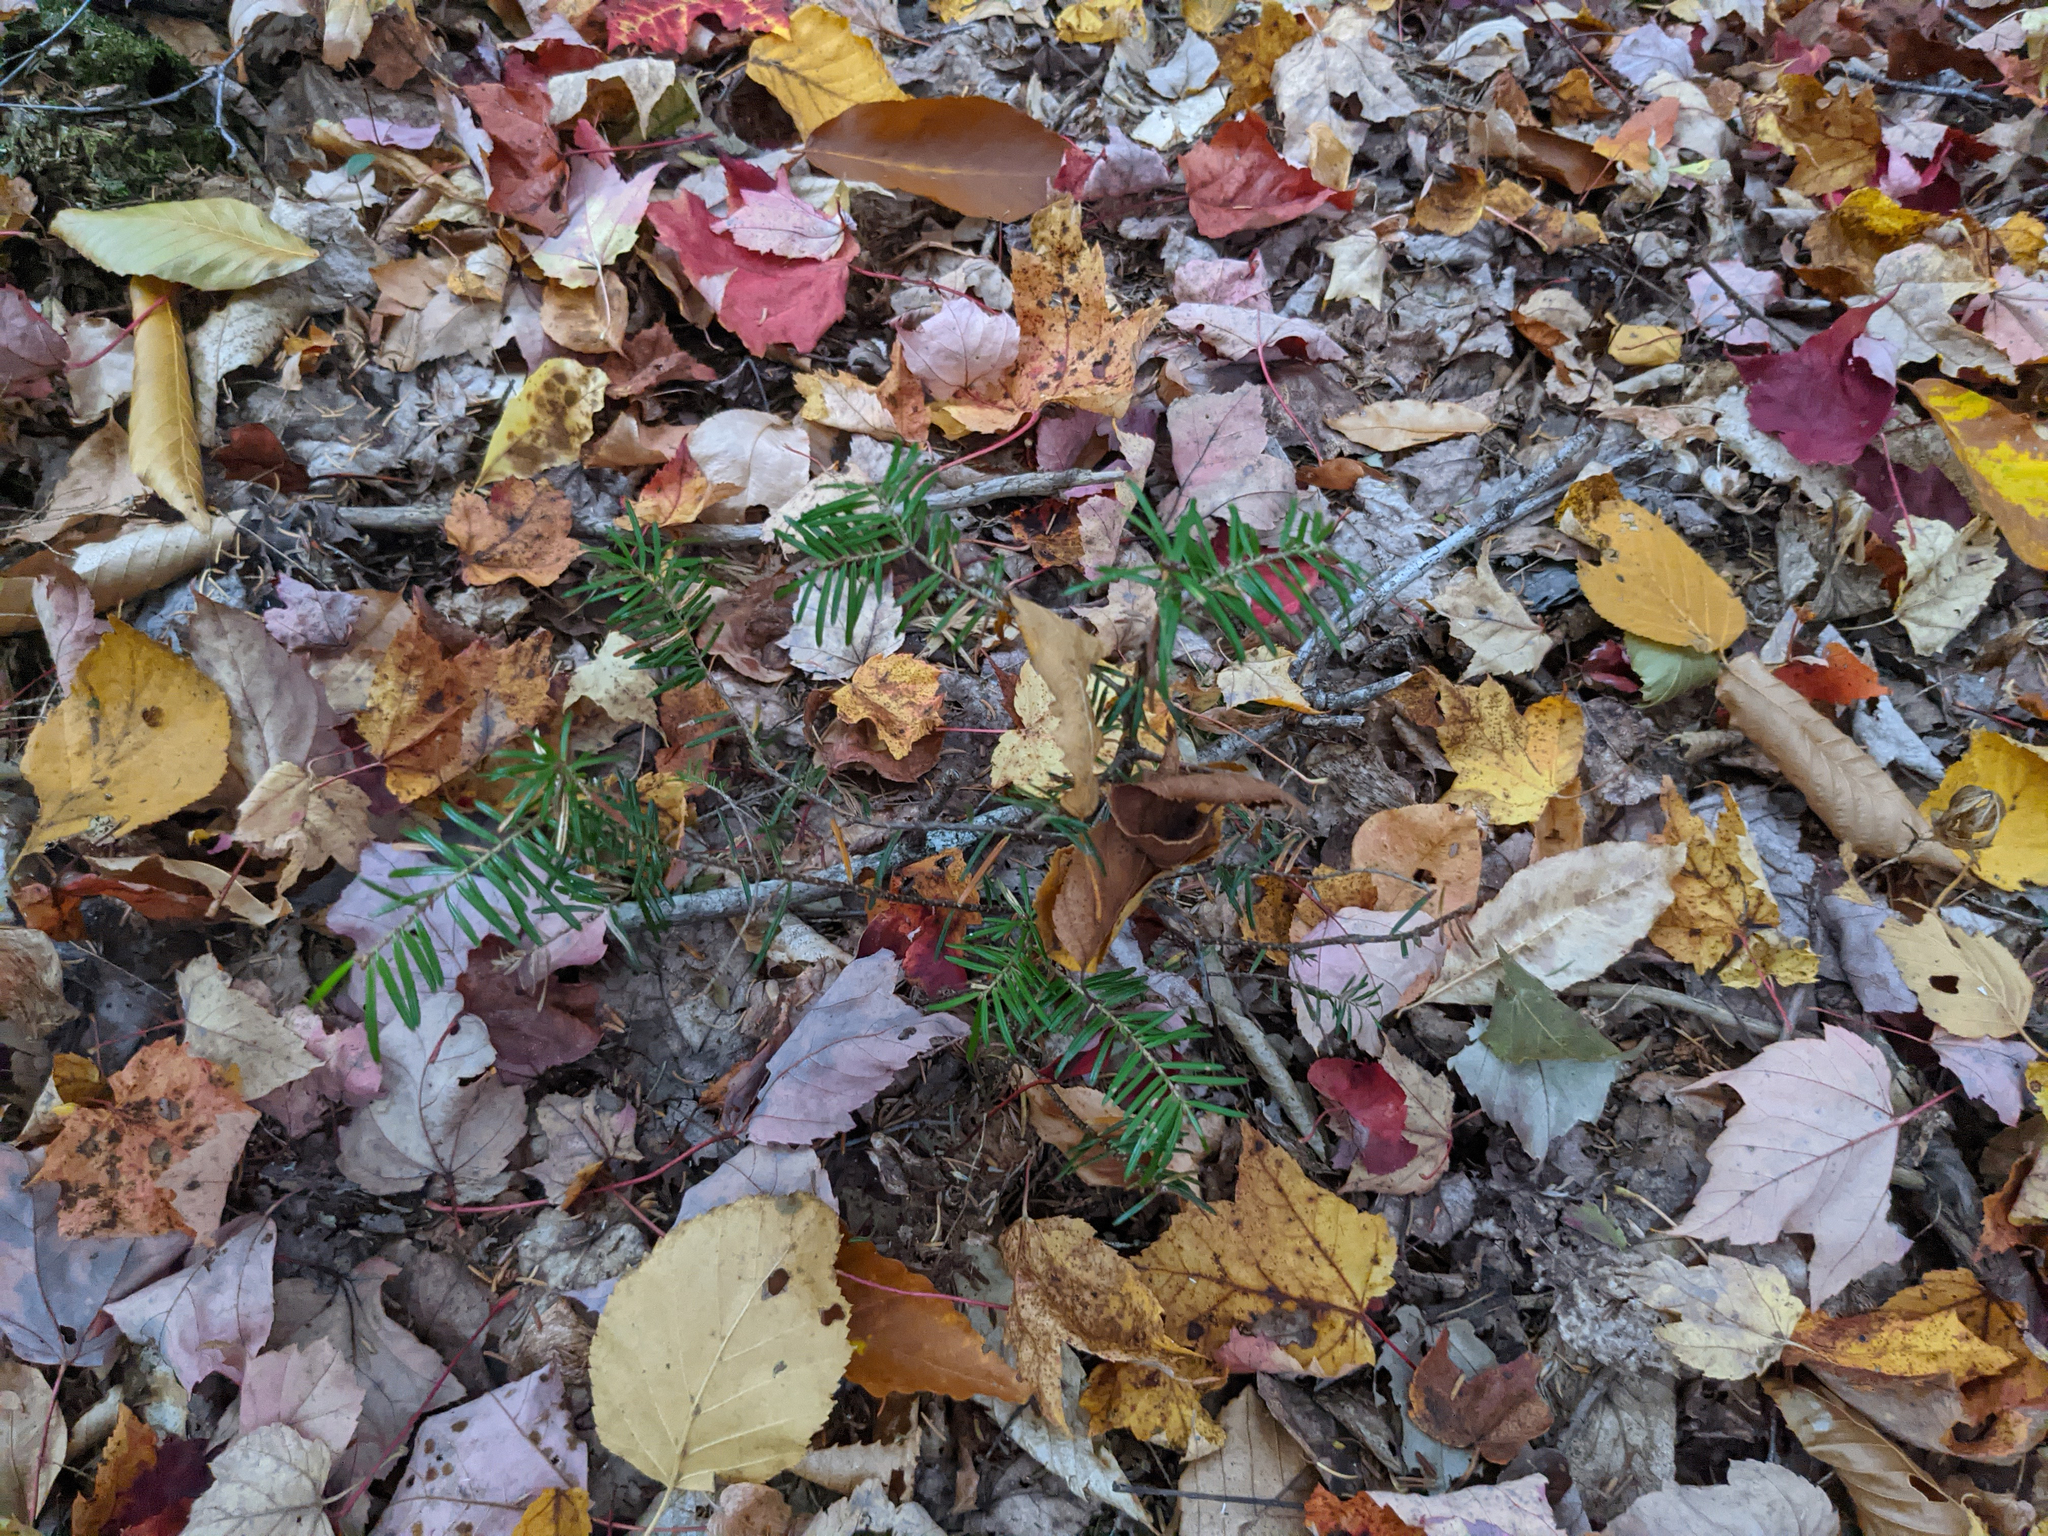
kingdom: Plantae
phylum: Tracheophyta
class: Pinopsida
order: Pinales
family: Pinaceae
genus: Abies
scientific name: Abies balsamea
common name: Balsam fir
